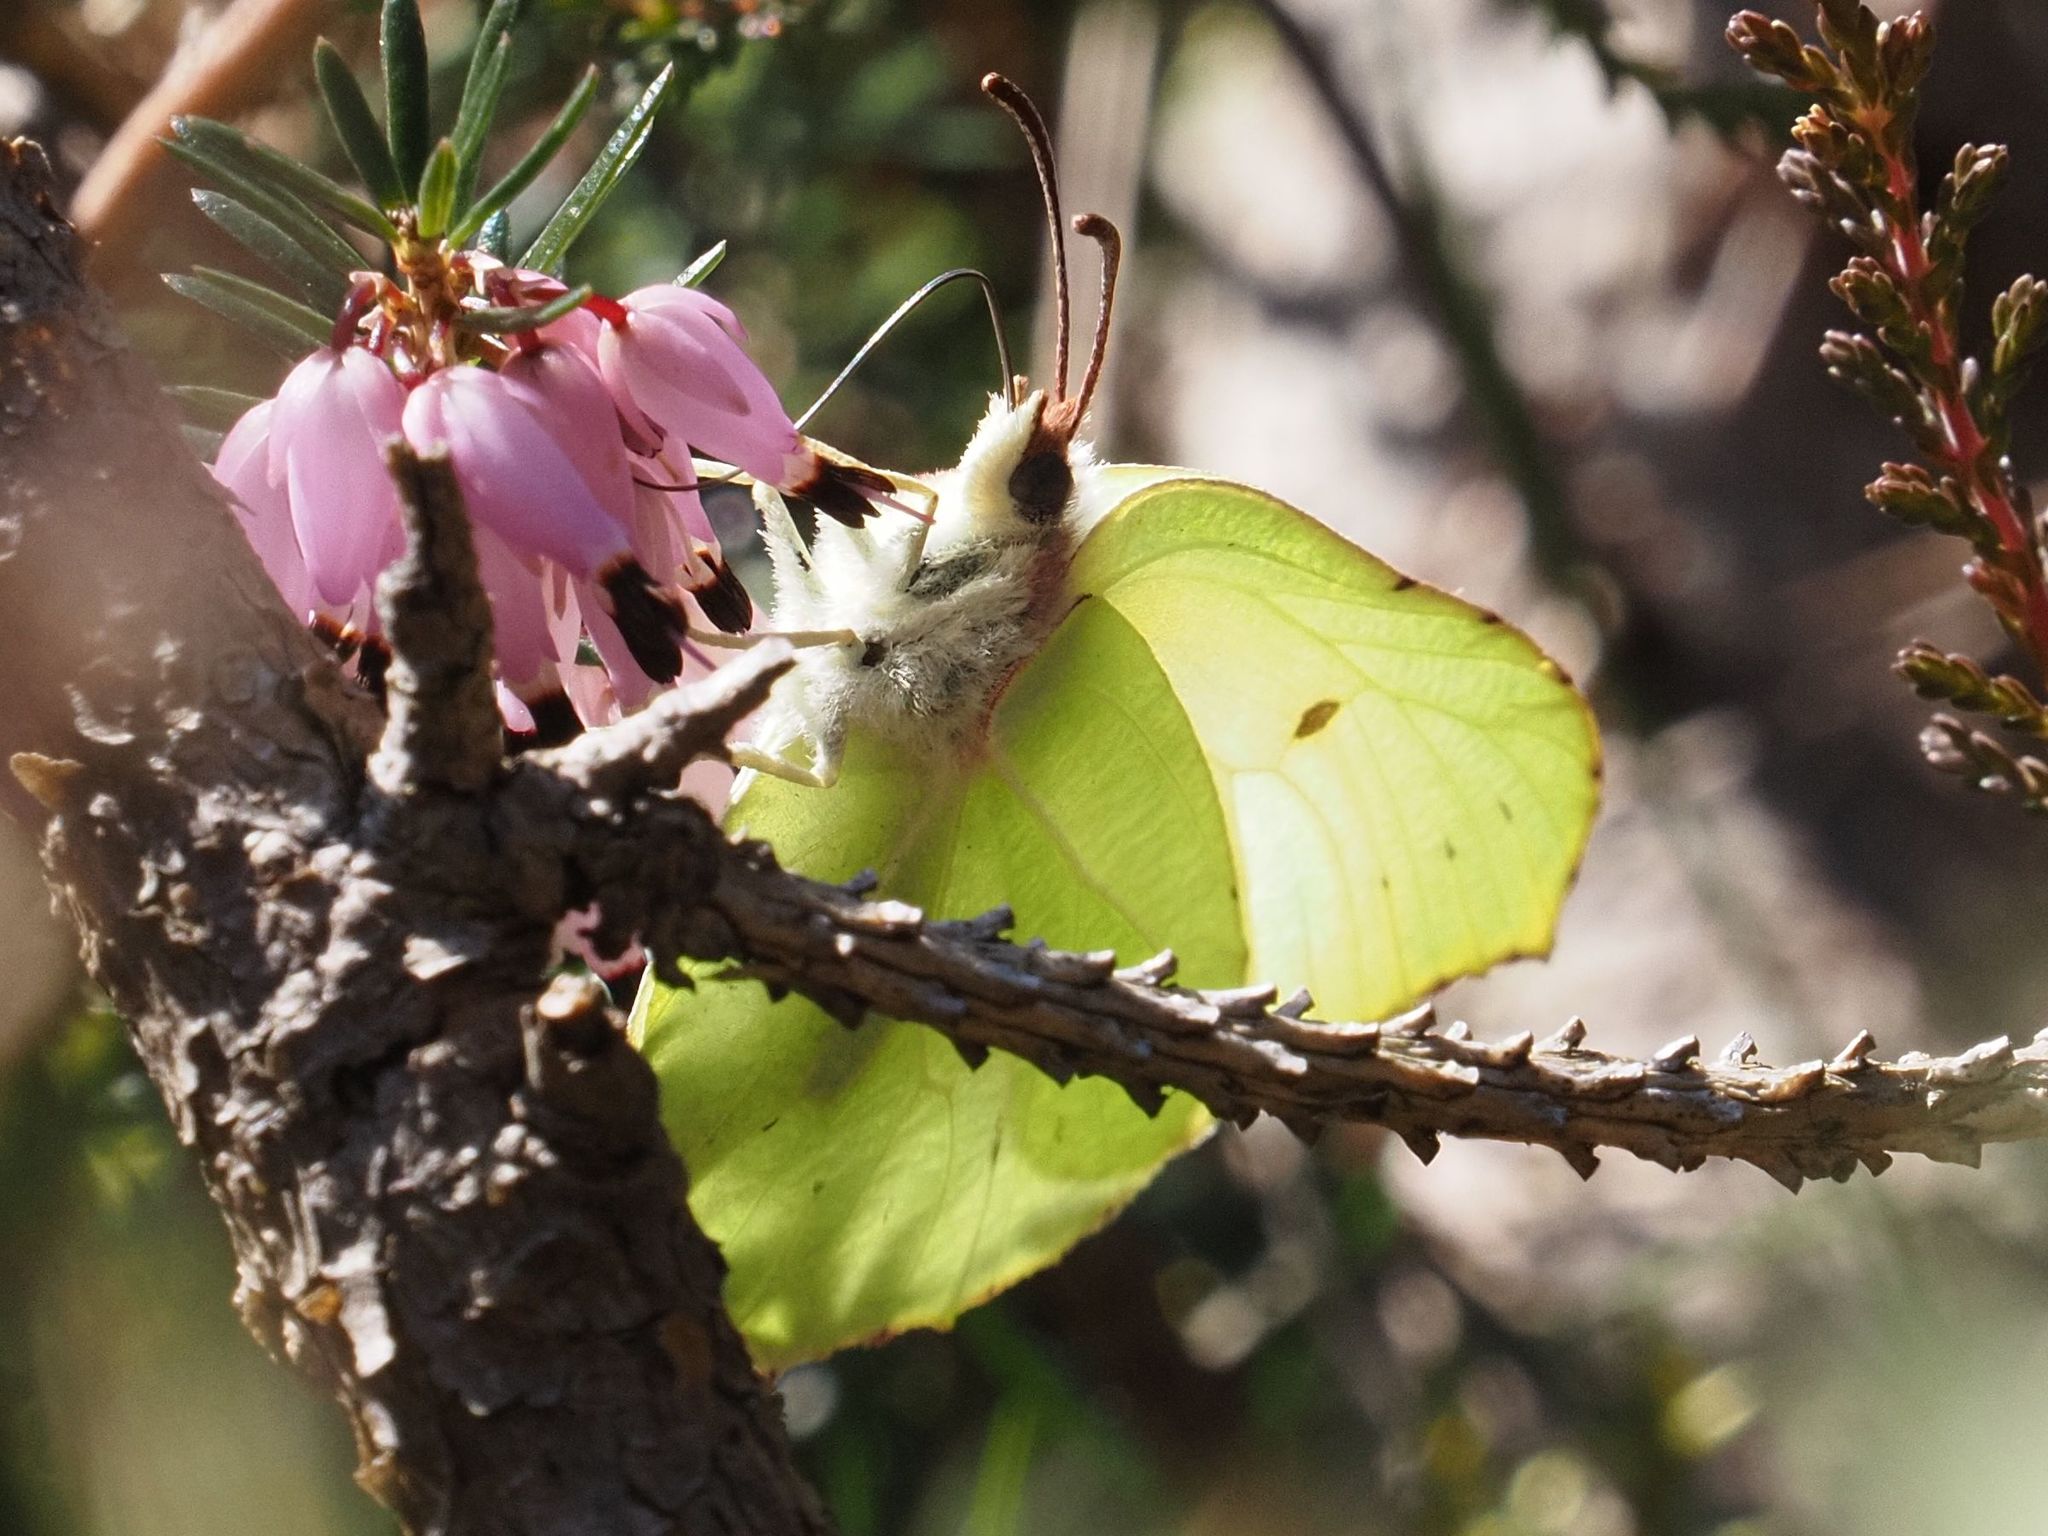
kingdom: Animalia
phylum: Arthropoda
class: Insecta
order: Lepidoptera
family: Pieridae
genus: Gonepteryx
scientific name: Gonepteryx rhamni
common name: Brimstone
